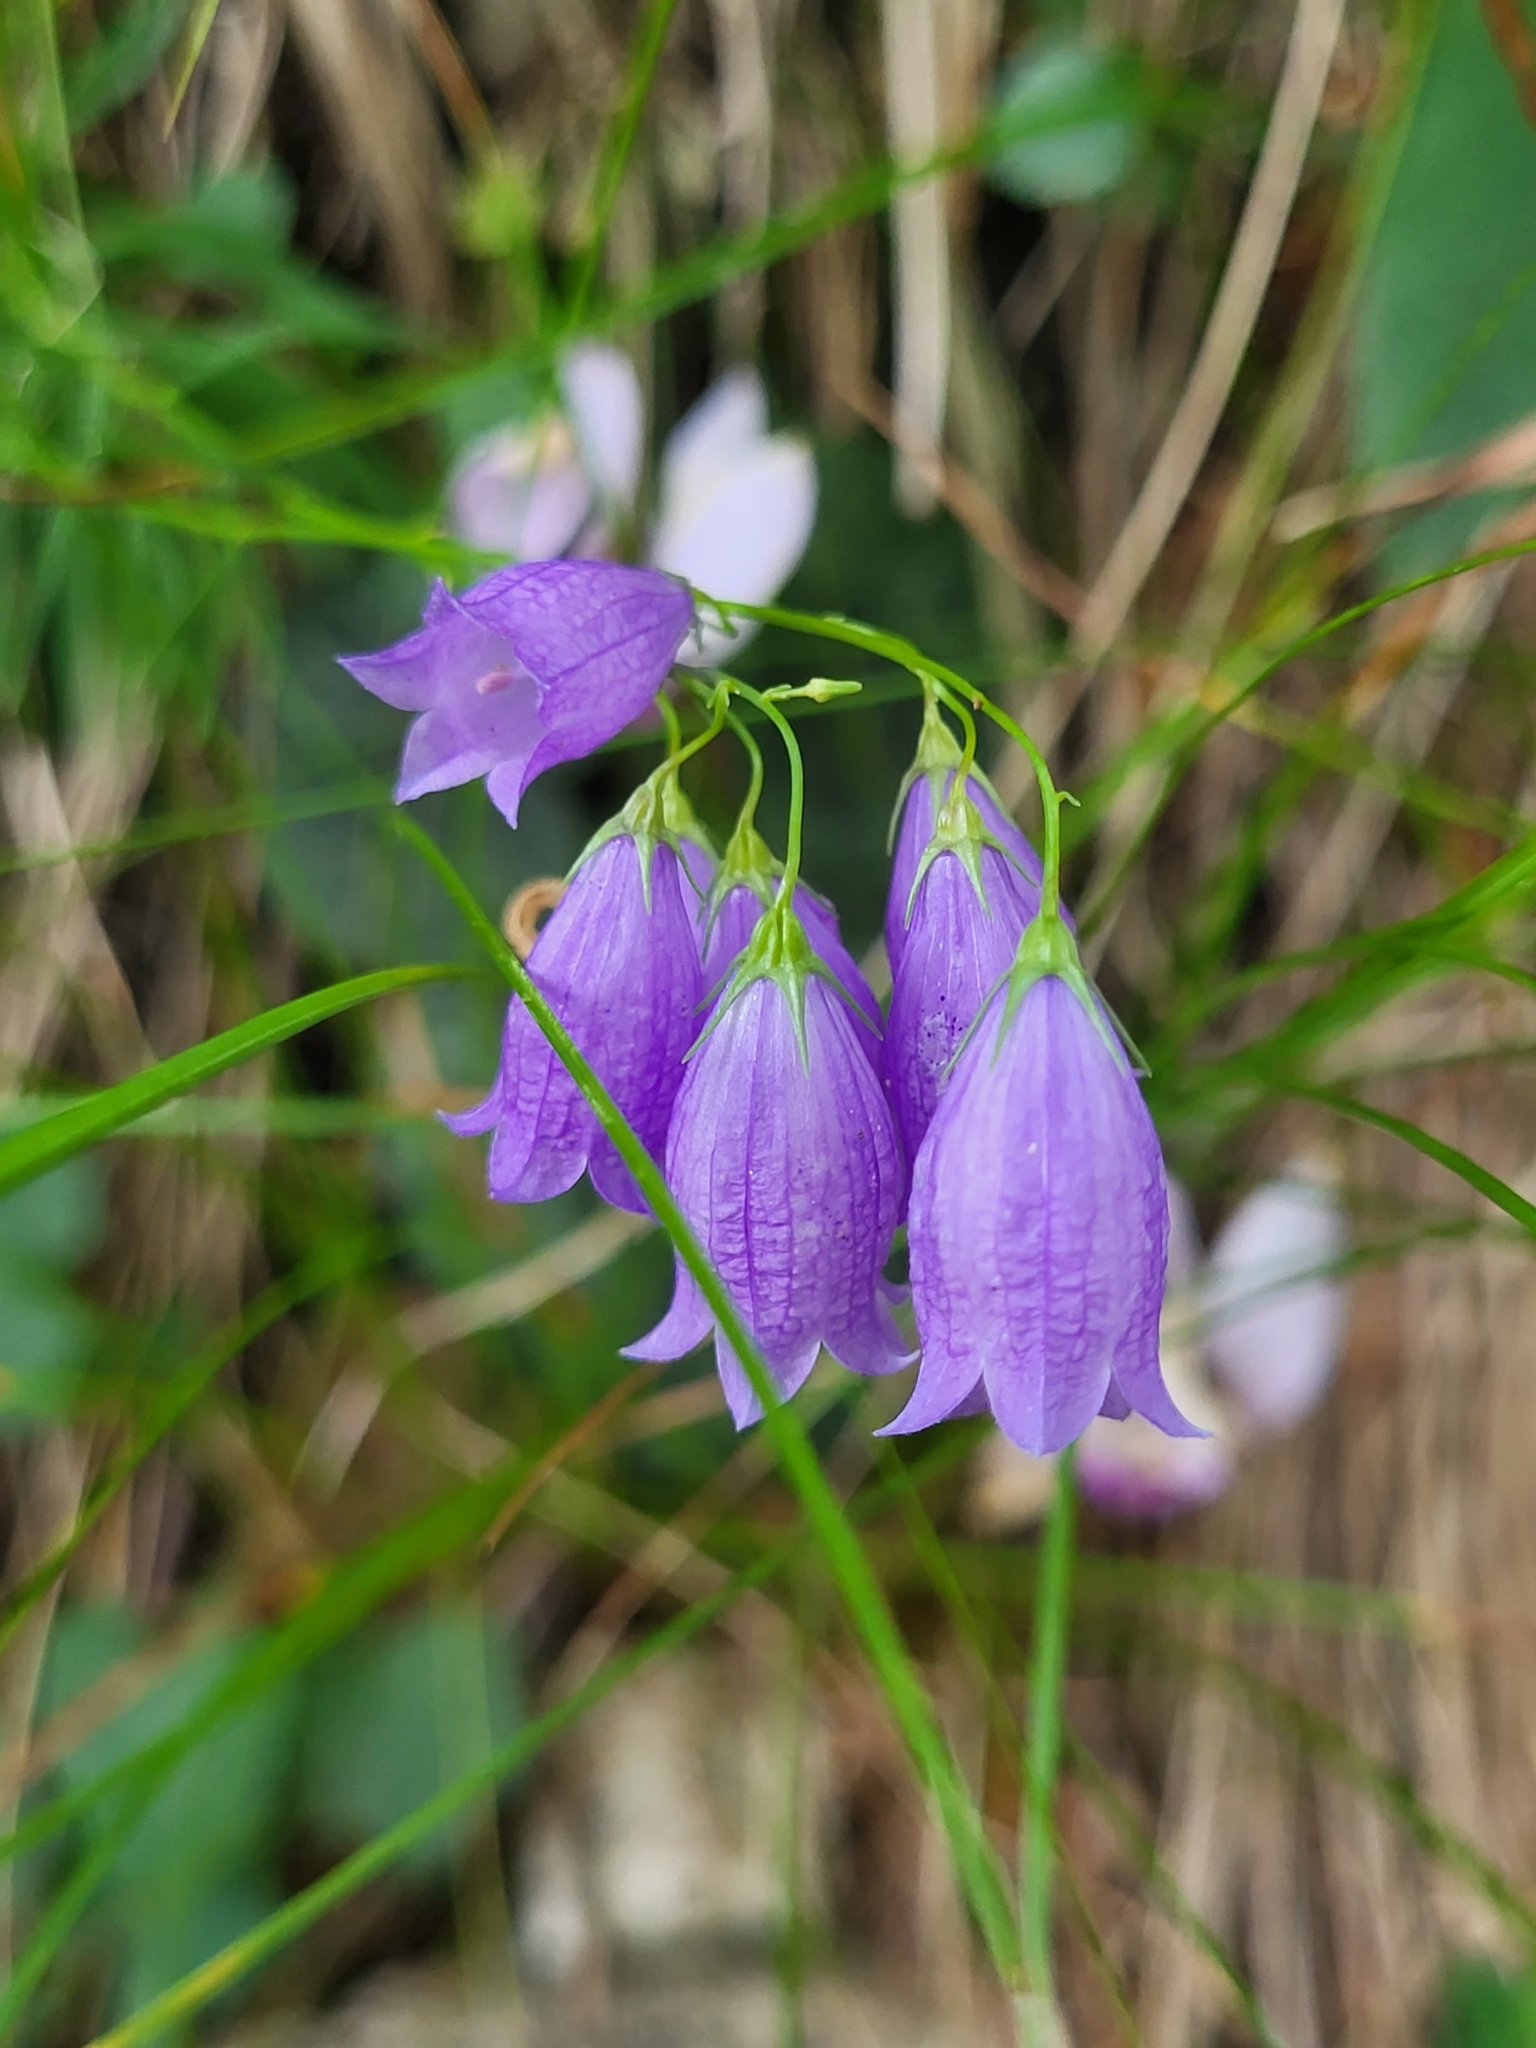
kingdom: Plantae
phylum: Tracheophyta
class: Magnoliopsida
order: Asterales
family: Campanulaceae
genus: Campanula
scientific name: Campanula cespitosa
